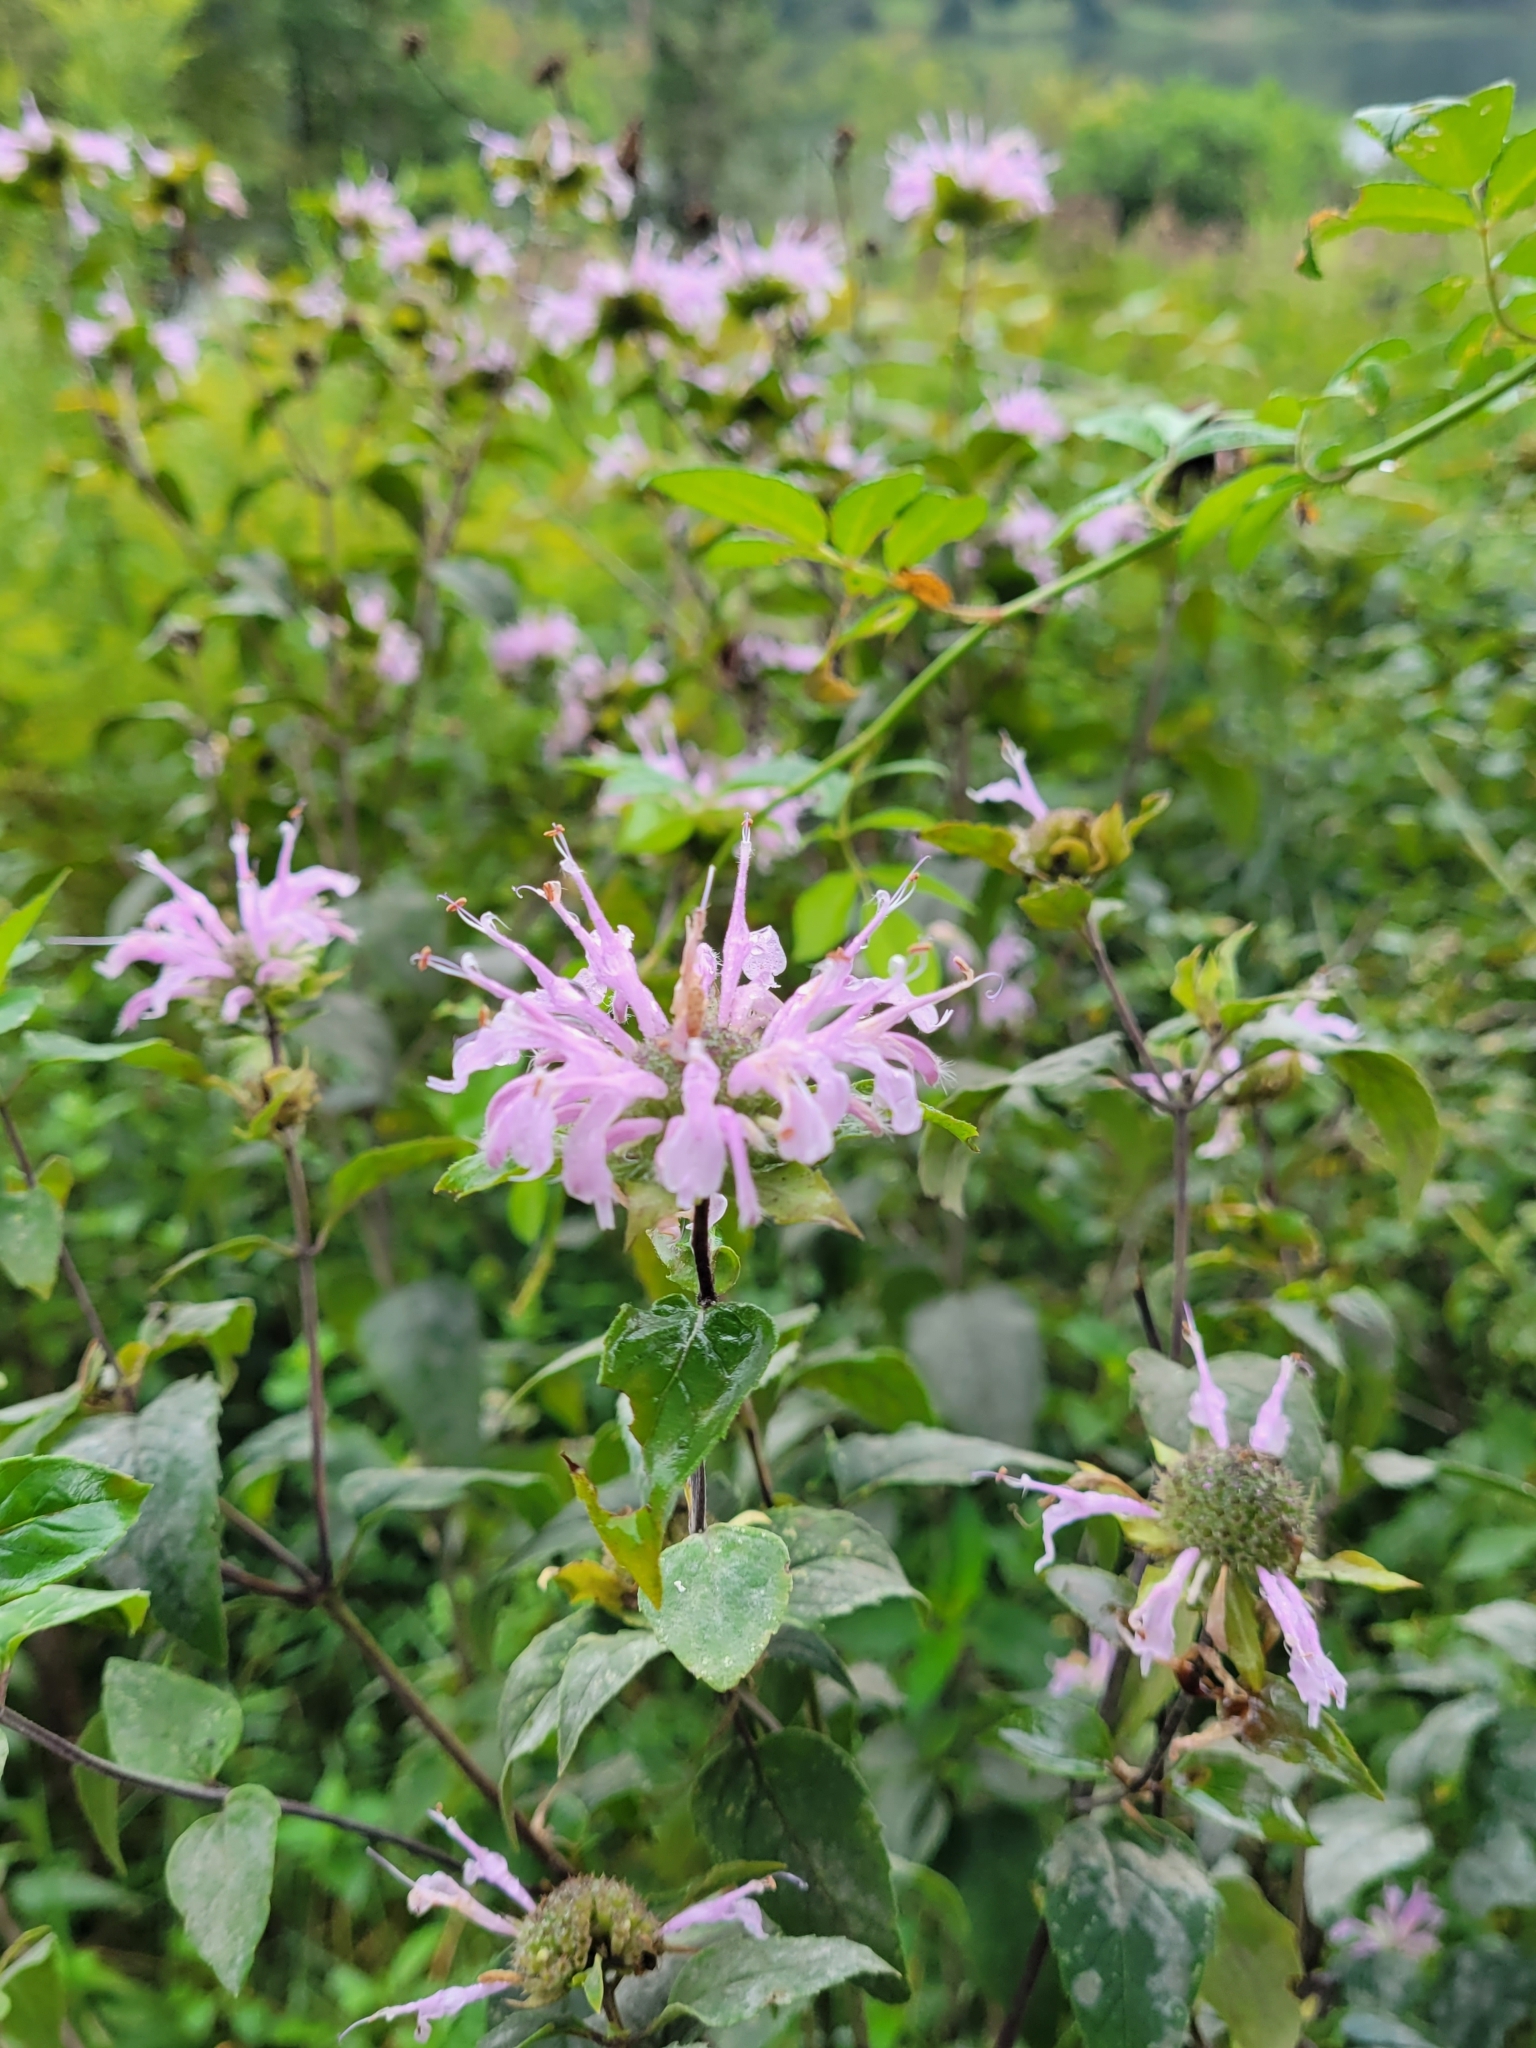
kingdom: Plantae
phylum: Tracheophyta
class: Magnoliopsida
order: Lamiales
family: Lamiaceae
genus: Monarda
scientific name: Monarda fistulosa
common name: Purple beebalm
